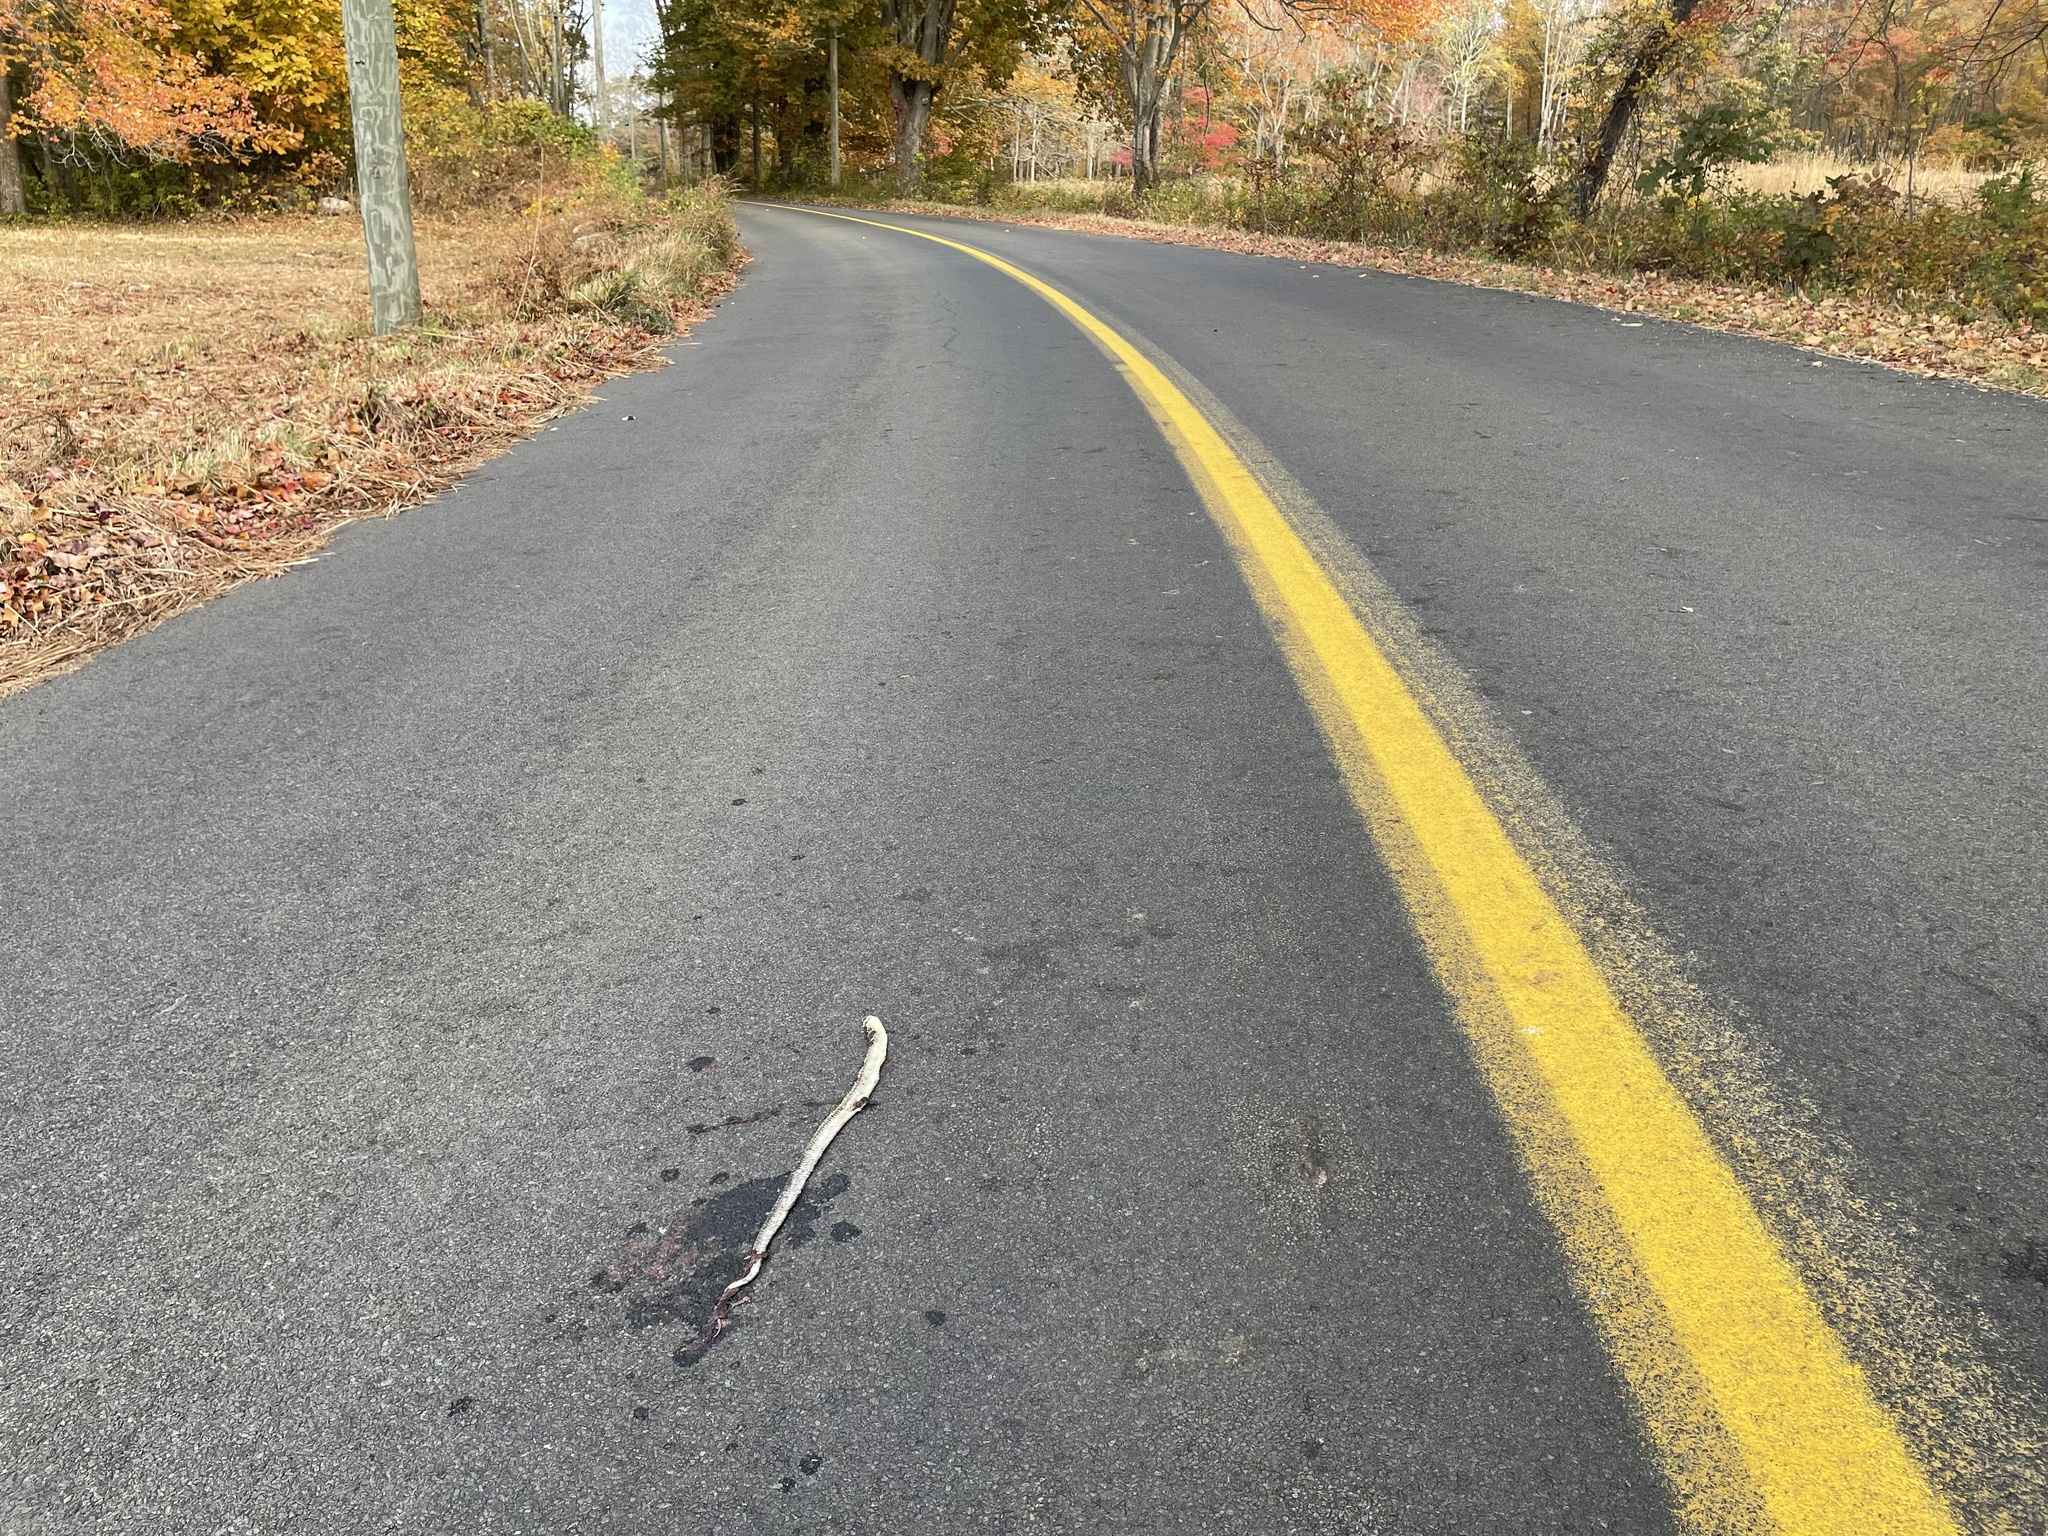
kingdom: Animalia
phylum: Chordata
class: Squamata
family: Colubridae
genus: Thamnophis
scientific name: Thamnophis sirtalis
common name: Common garter snake
